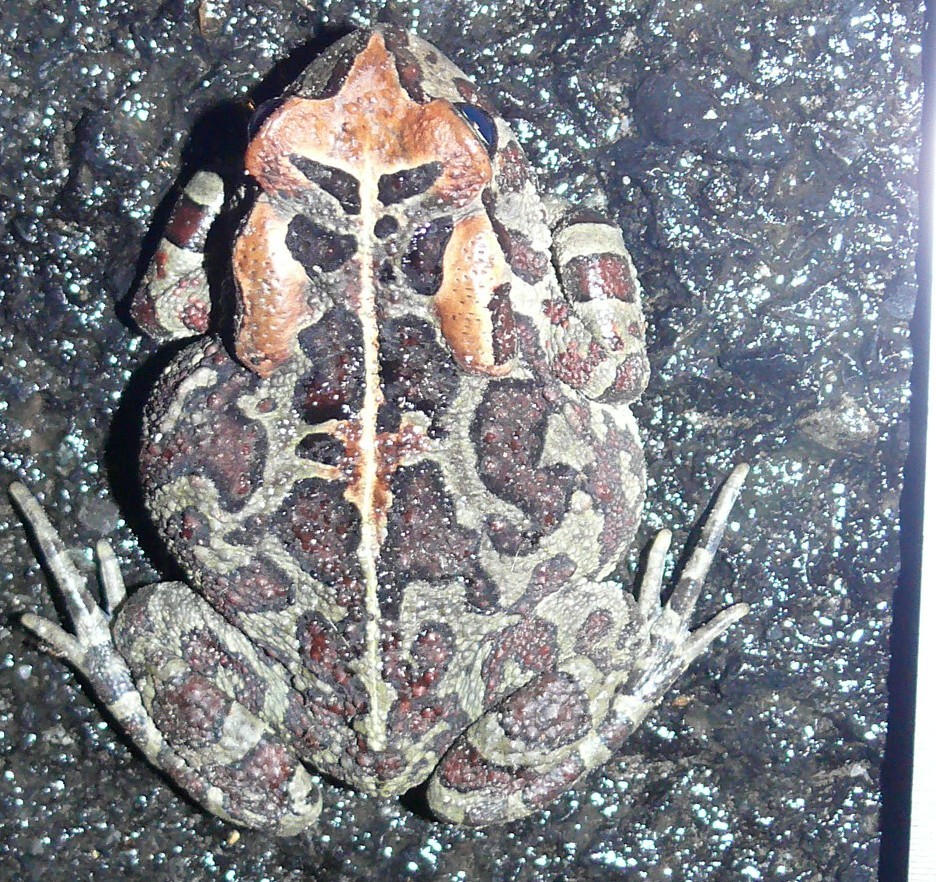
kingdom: Animalia
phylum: Chordata
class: Amphibia
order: Anura
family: Bufonidae
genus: Sclerophrys
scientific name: Sclerophrys pantherina
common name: Panther toad
